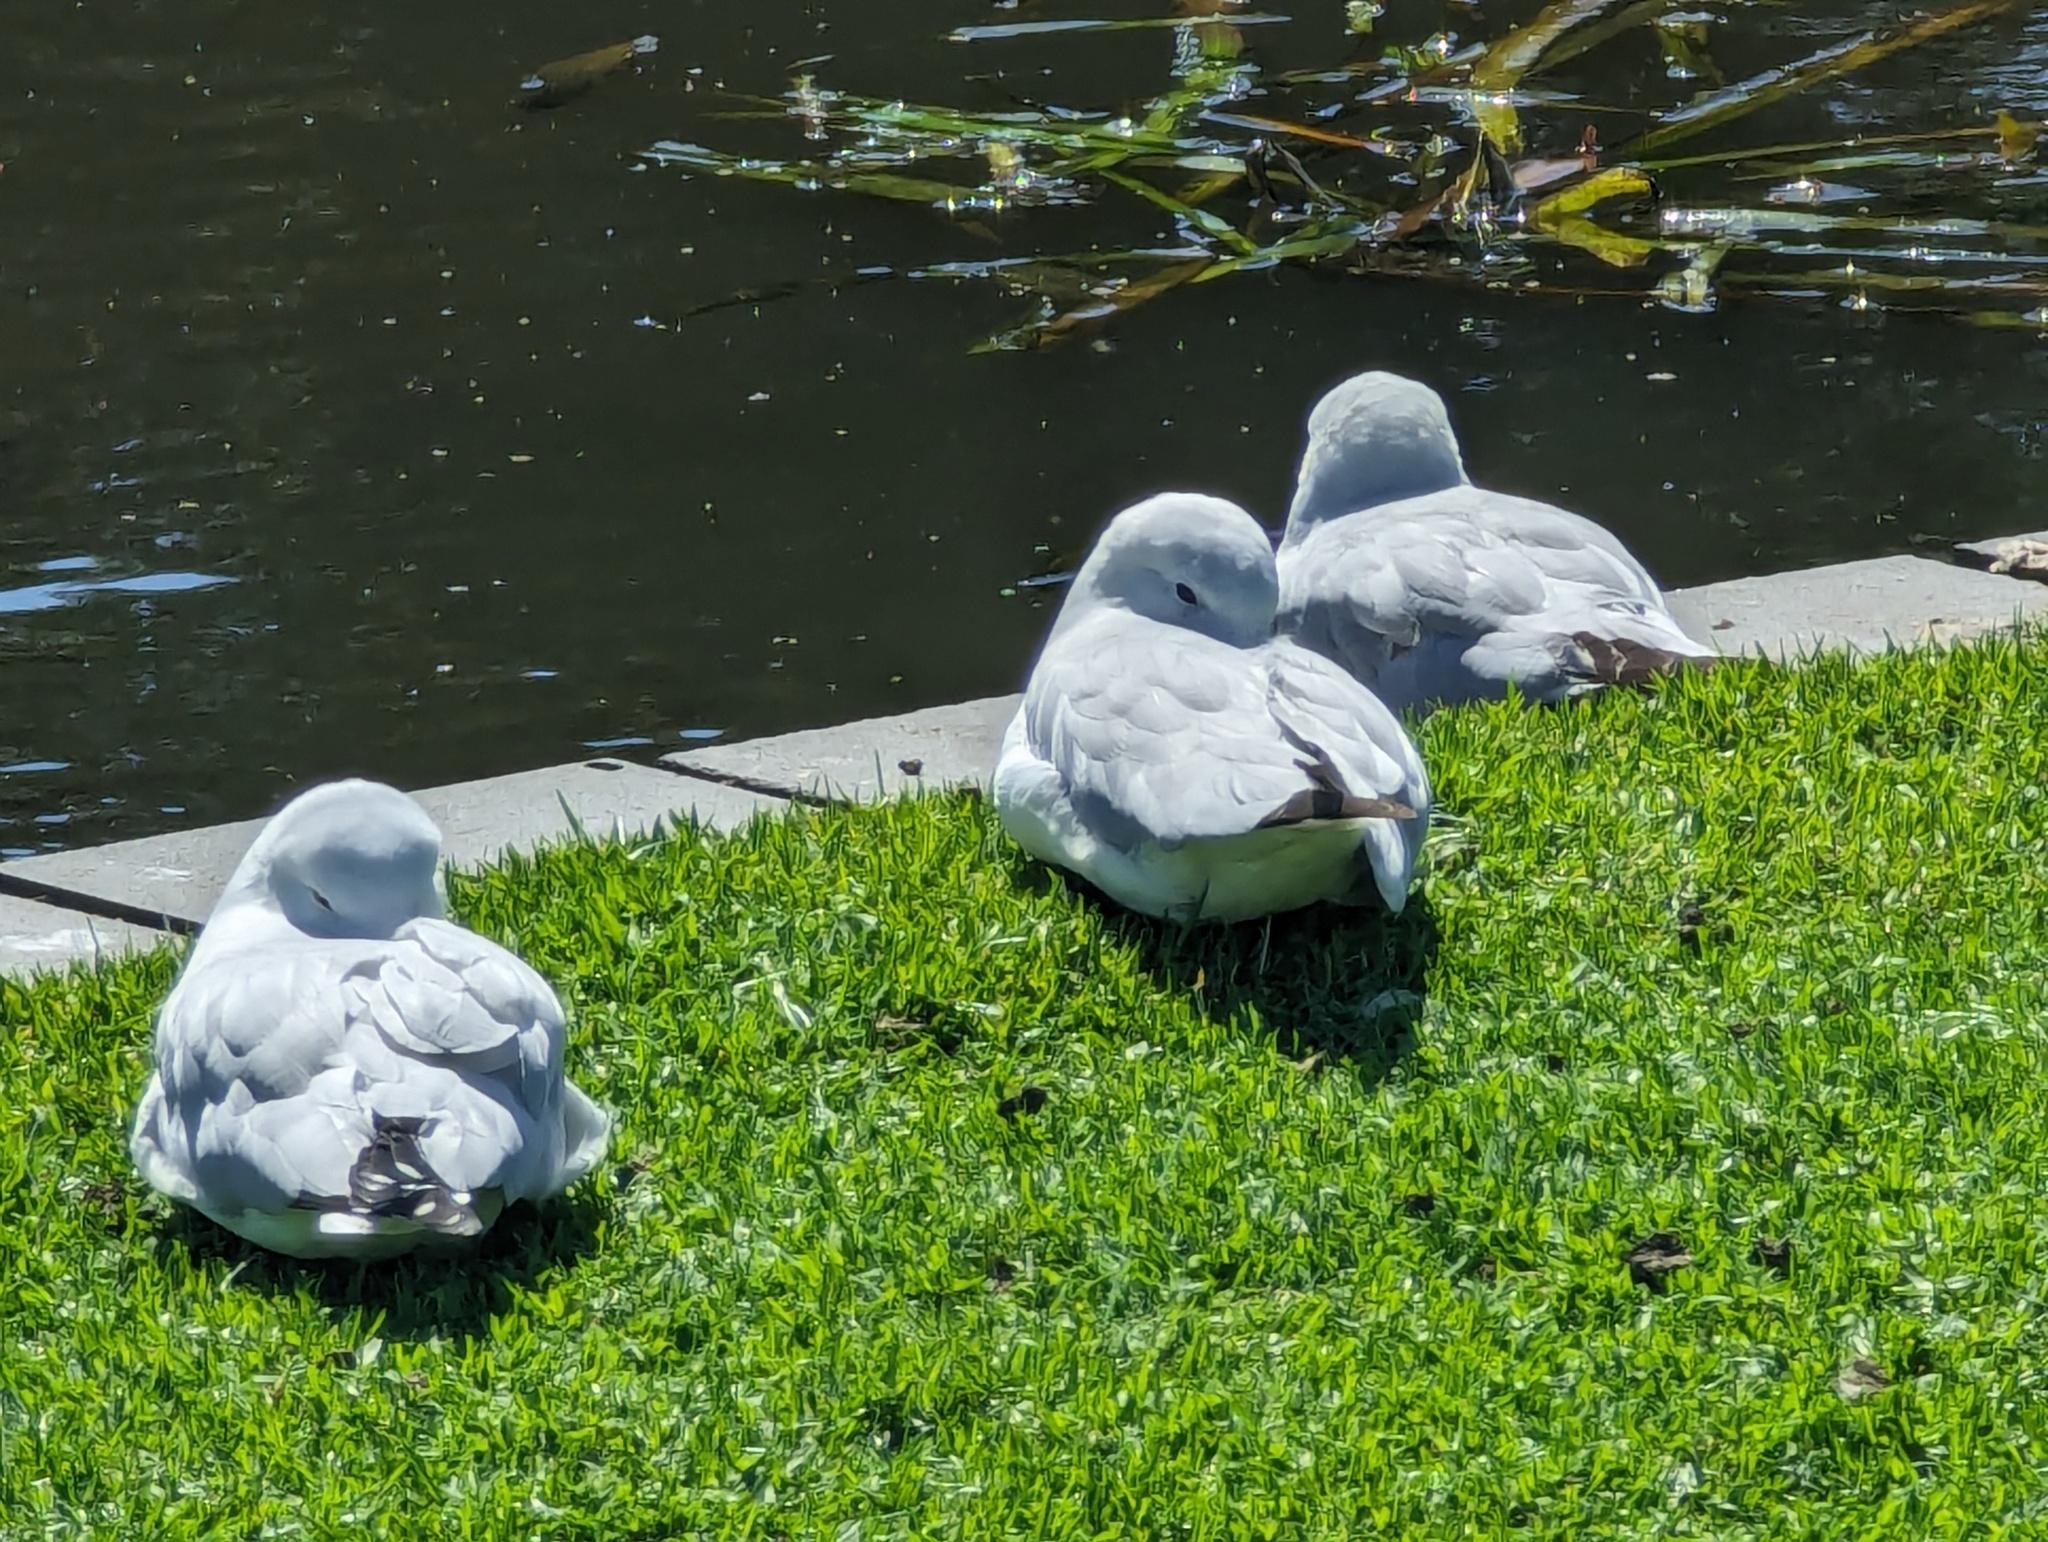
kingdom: Animalia
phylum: Chordata
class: Aves
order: Charadriiformes
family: Laridae
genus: Chroicocephalus
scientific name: Chroicocephalus novaehollandiae
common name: Silver gull
